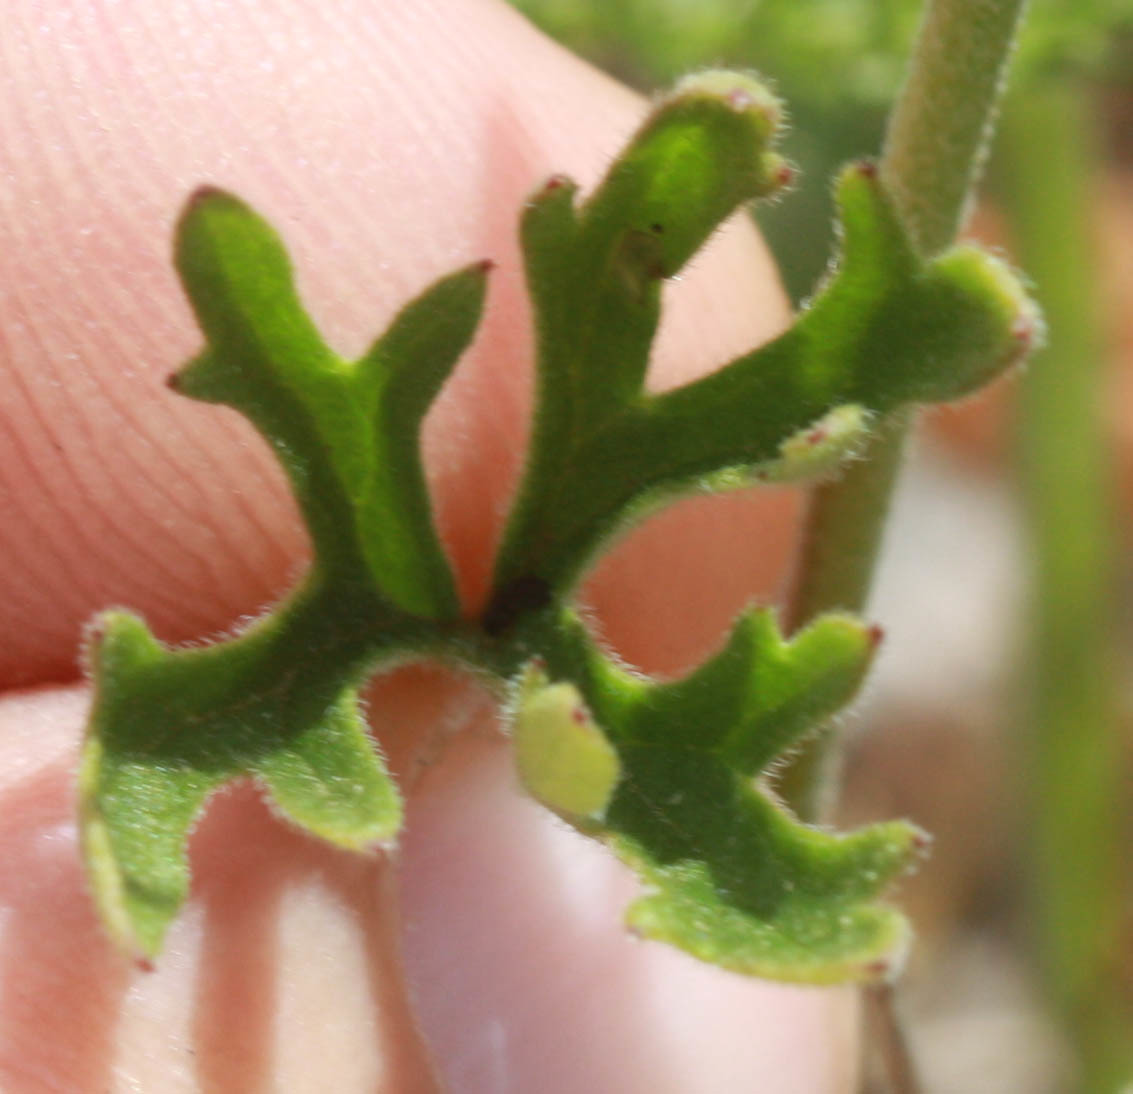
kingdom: Plantae
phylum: Tracheophyta
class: Magnoliopsida
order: Ranunculales
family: Ranunculaceae
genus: Delphinium
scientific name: Delphinium patens
